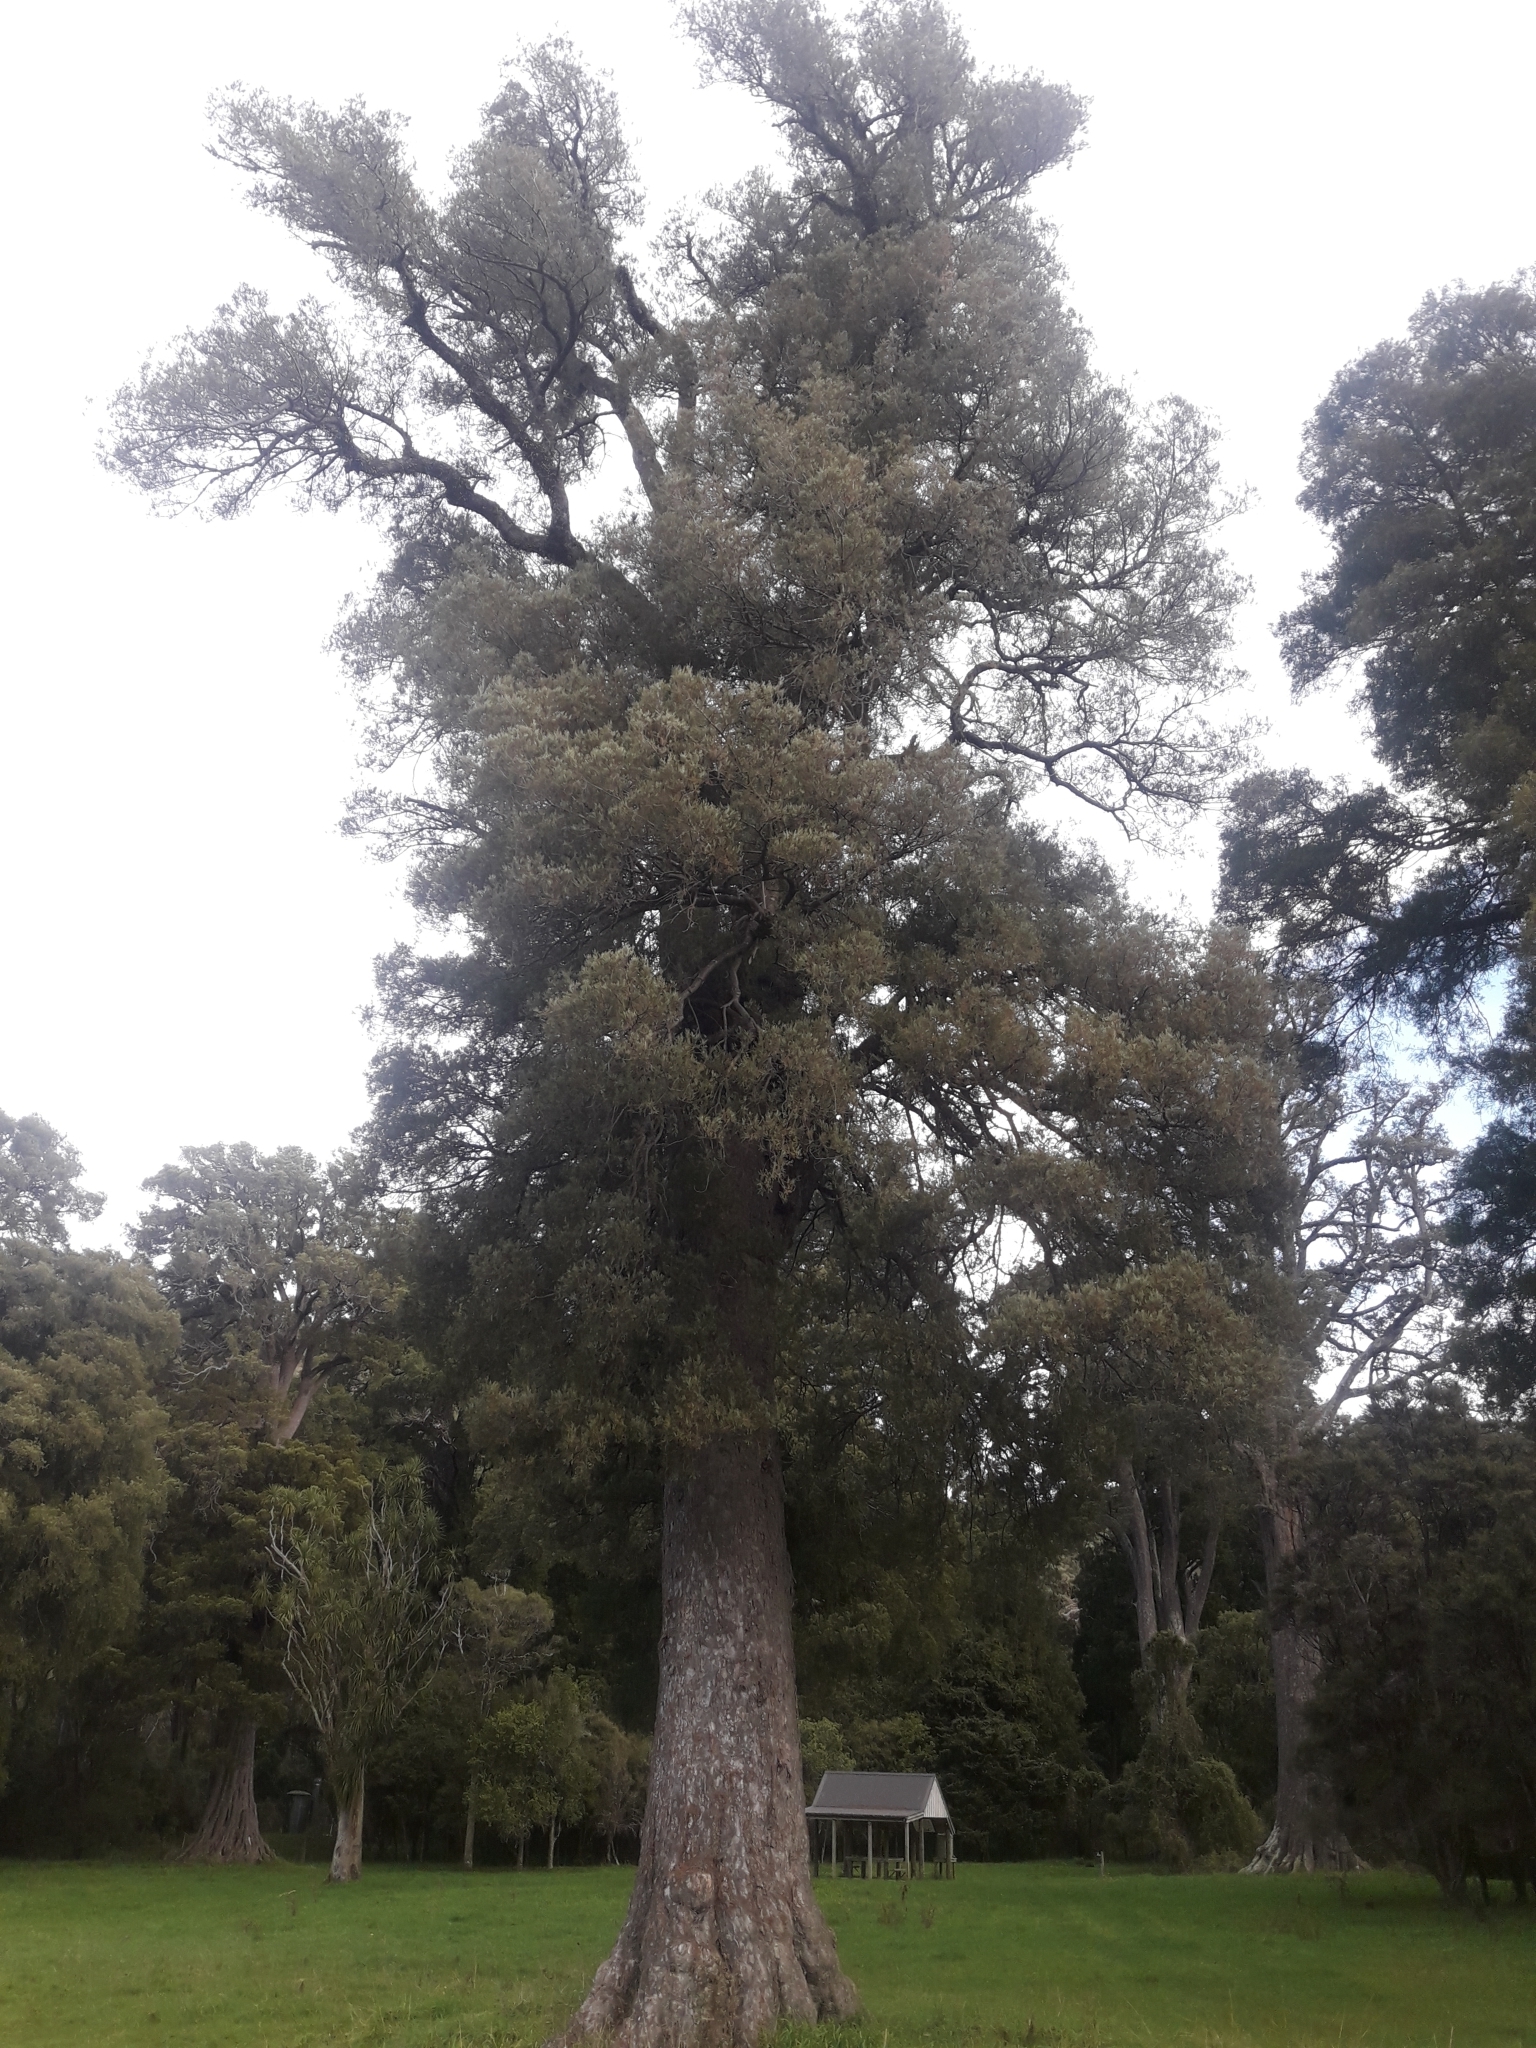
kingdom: Plantae
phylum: Tracheophyta
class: Pinopsida
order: Pinales
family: Podocarpaceae
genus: Dacrycarpus
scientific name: Dacrycarpus dacrydioides
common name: White pine
